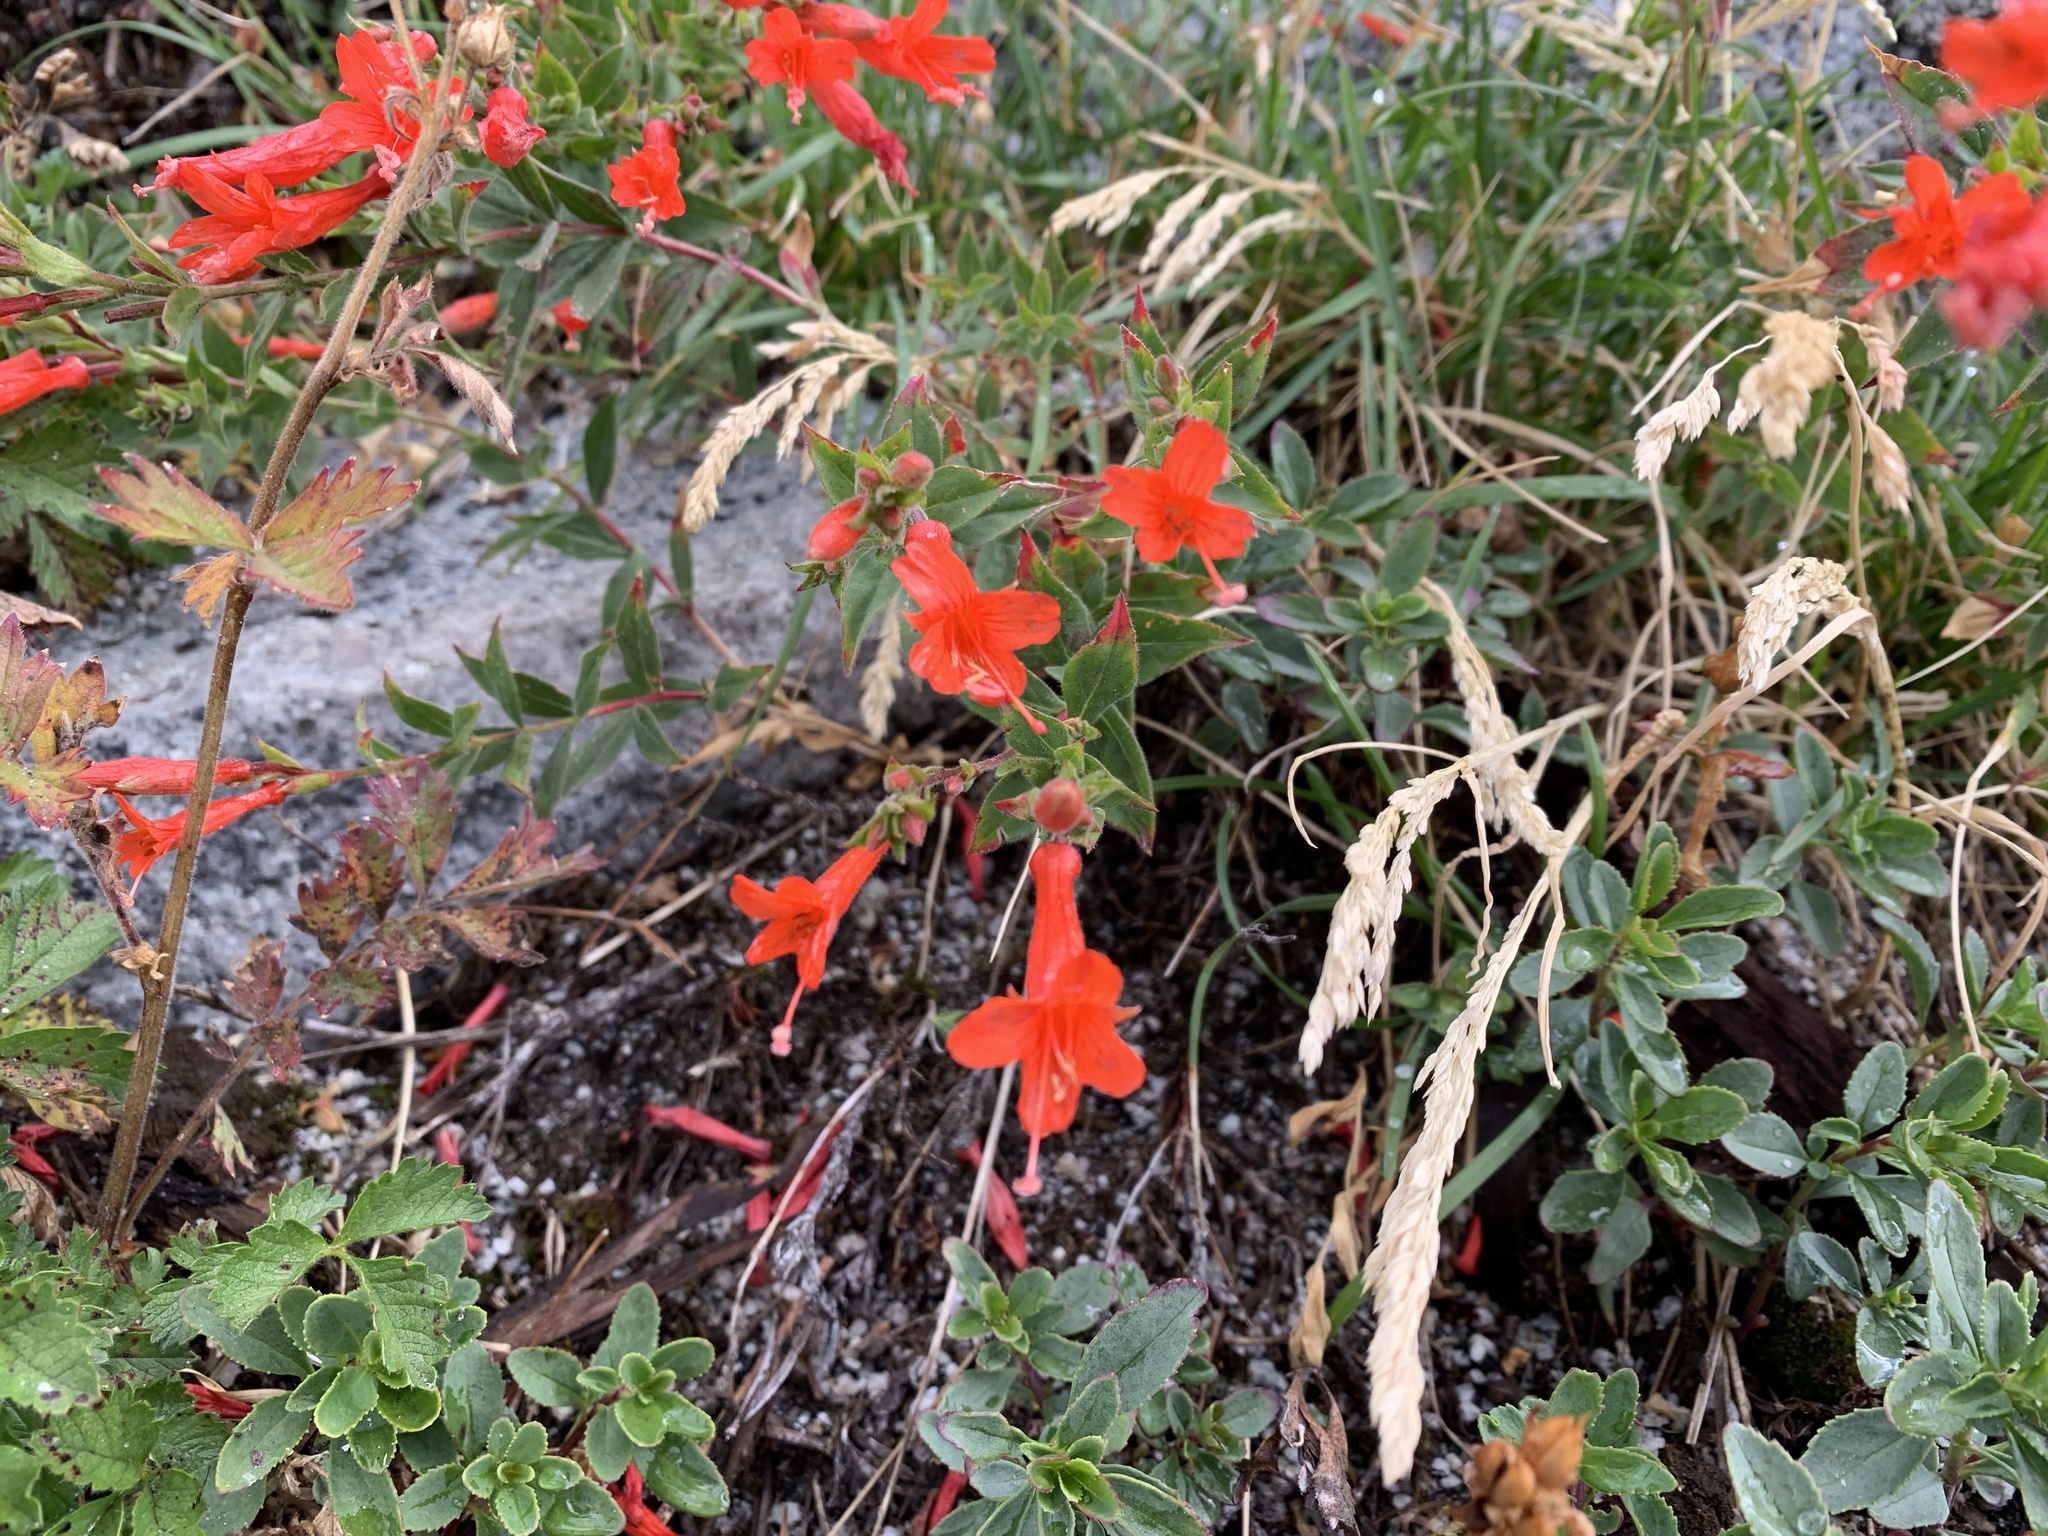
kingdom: Plantae
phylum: Tracheophyta
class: Magnoliopsida
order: Myrtales
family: Onagraceae
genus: Epilobium
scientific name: Epilobium canum
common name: California-fuchsia
